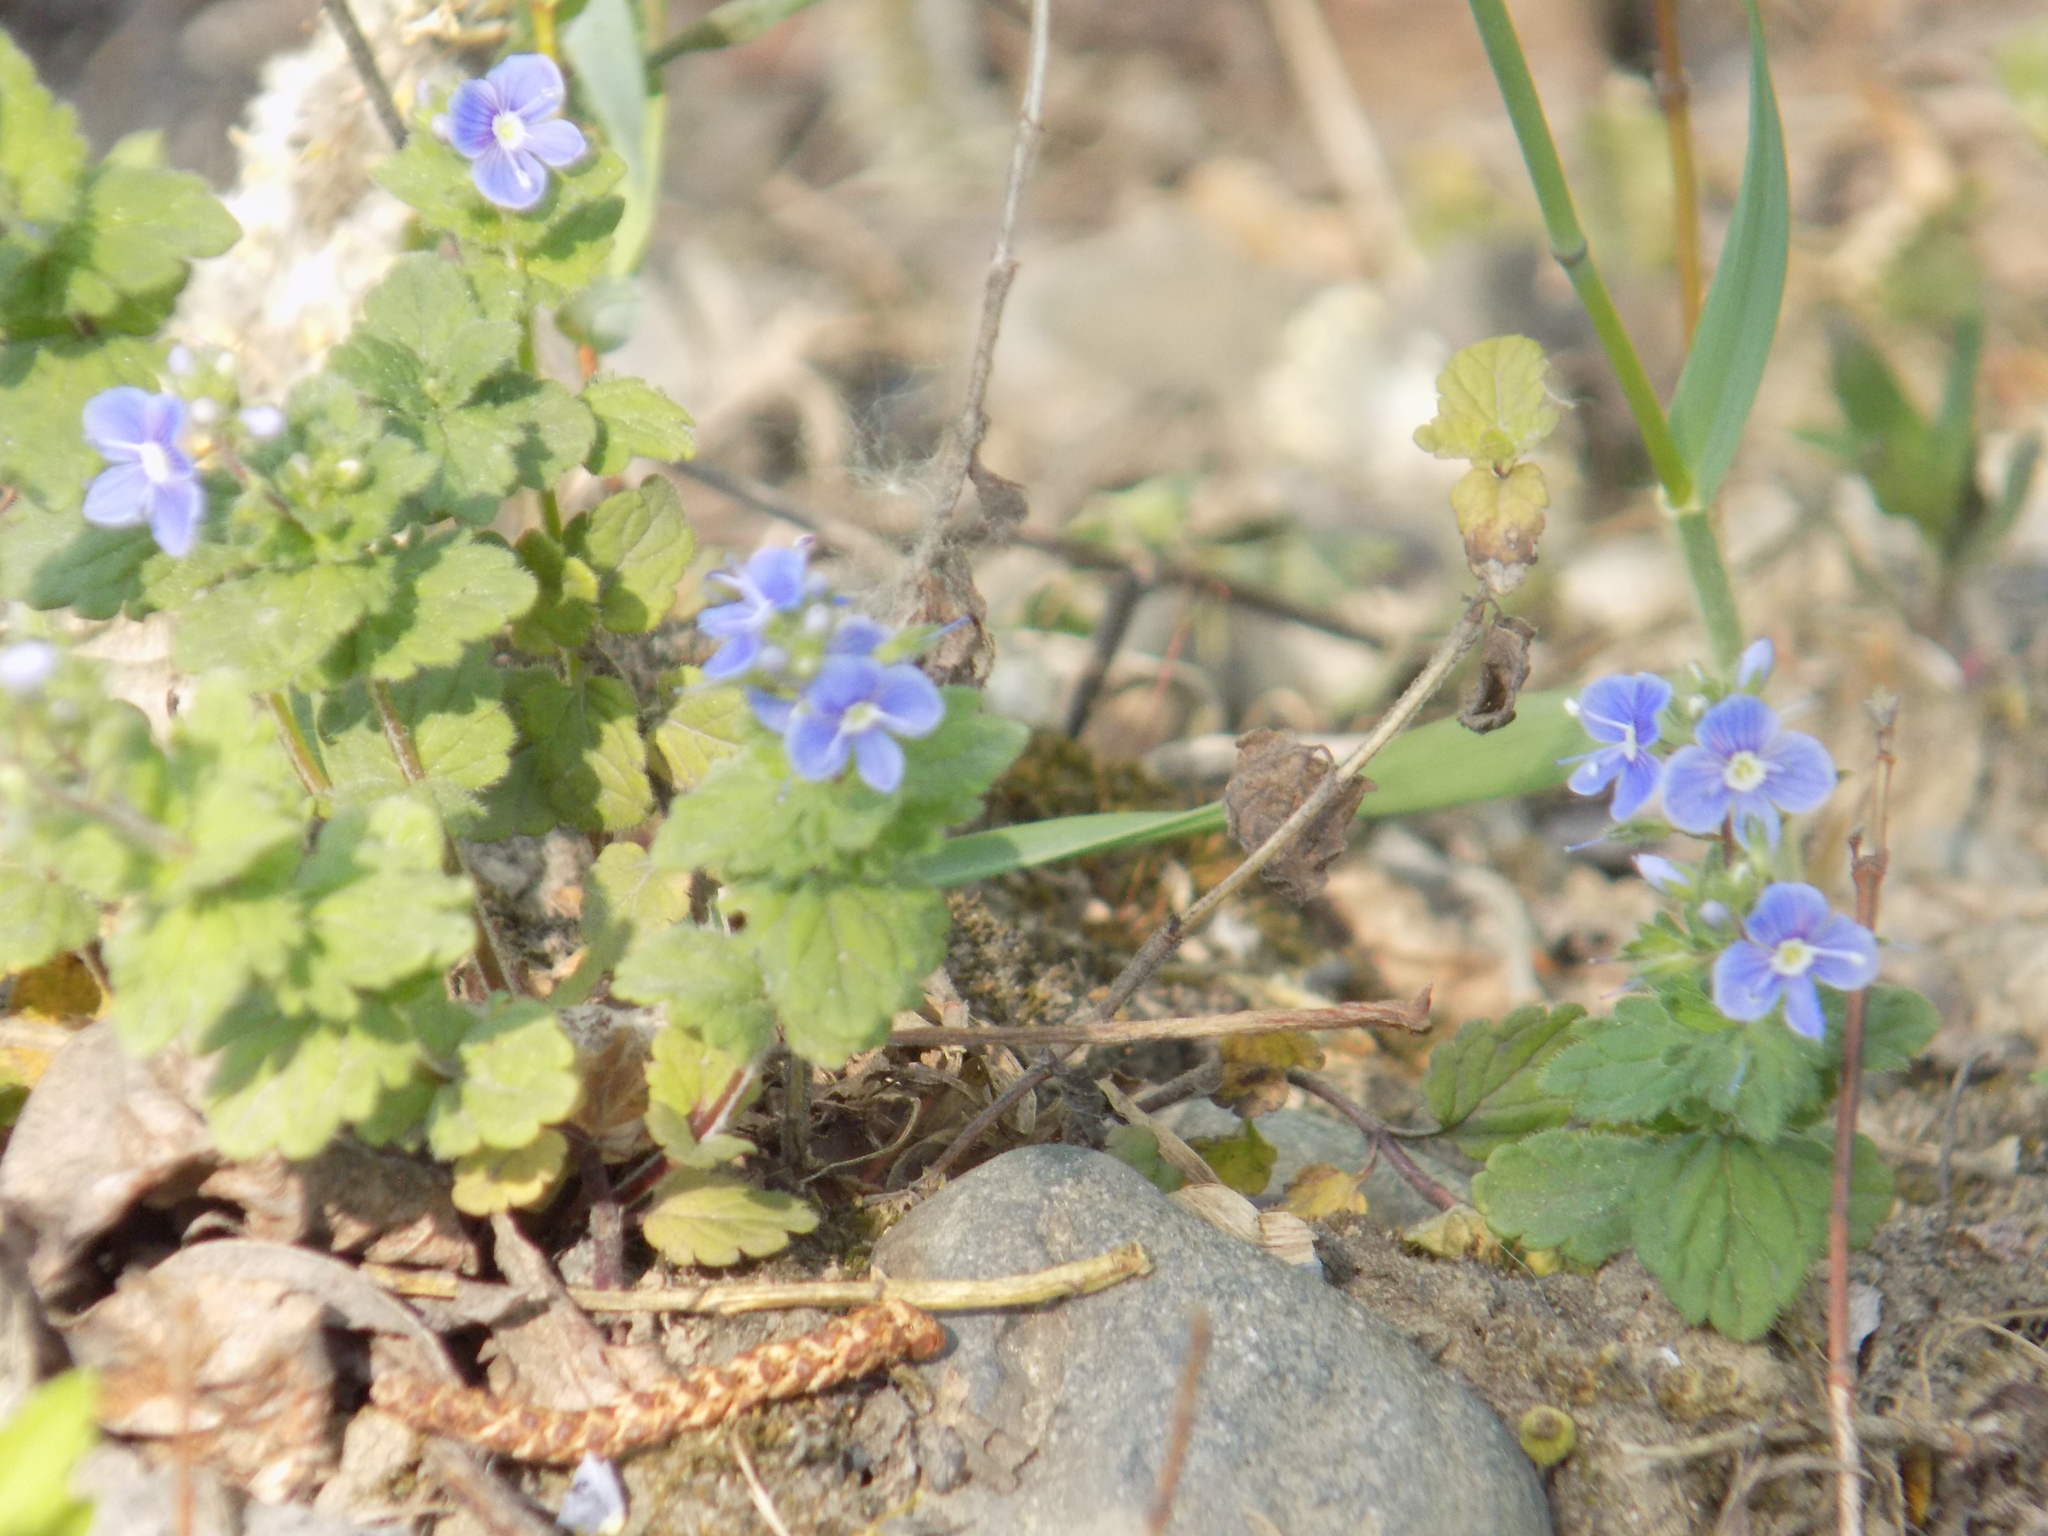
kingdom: Plantae
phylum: Tracheophyta
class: Magnoliopsida
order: Lamiales
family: Plantaginaceae
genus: Veronica
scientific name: Veronica chamaedrys
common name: Germander speedwell
